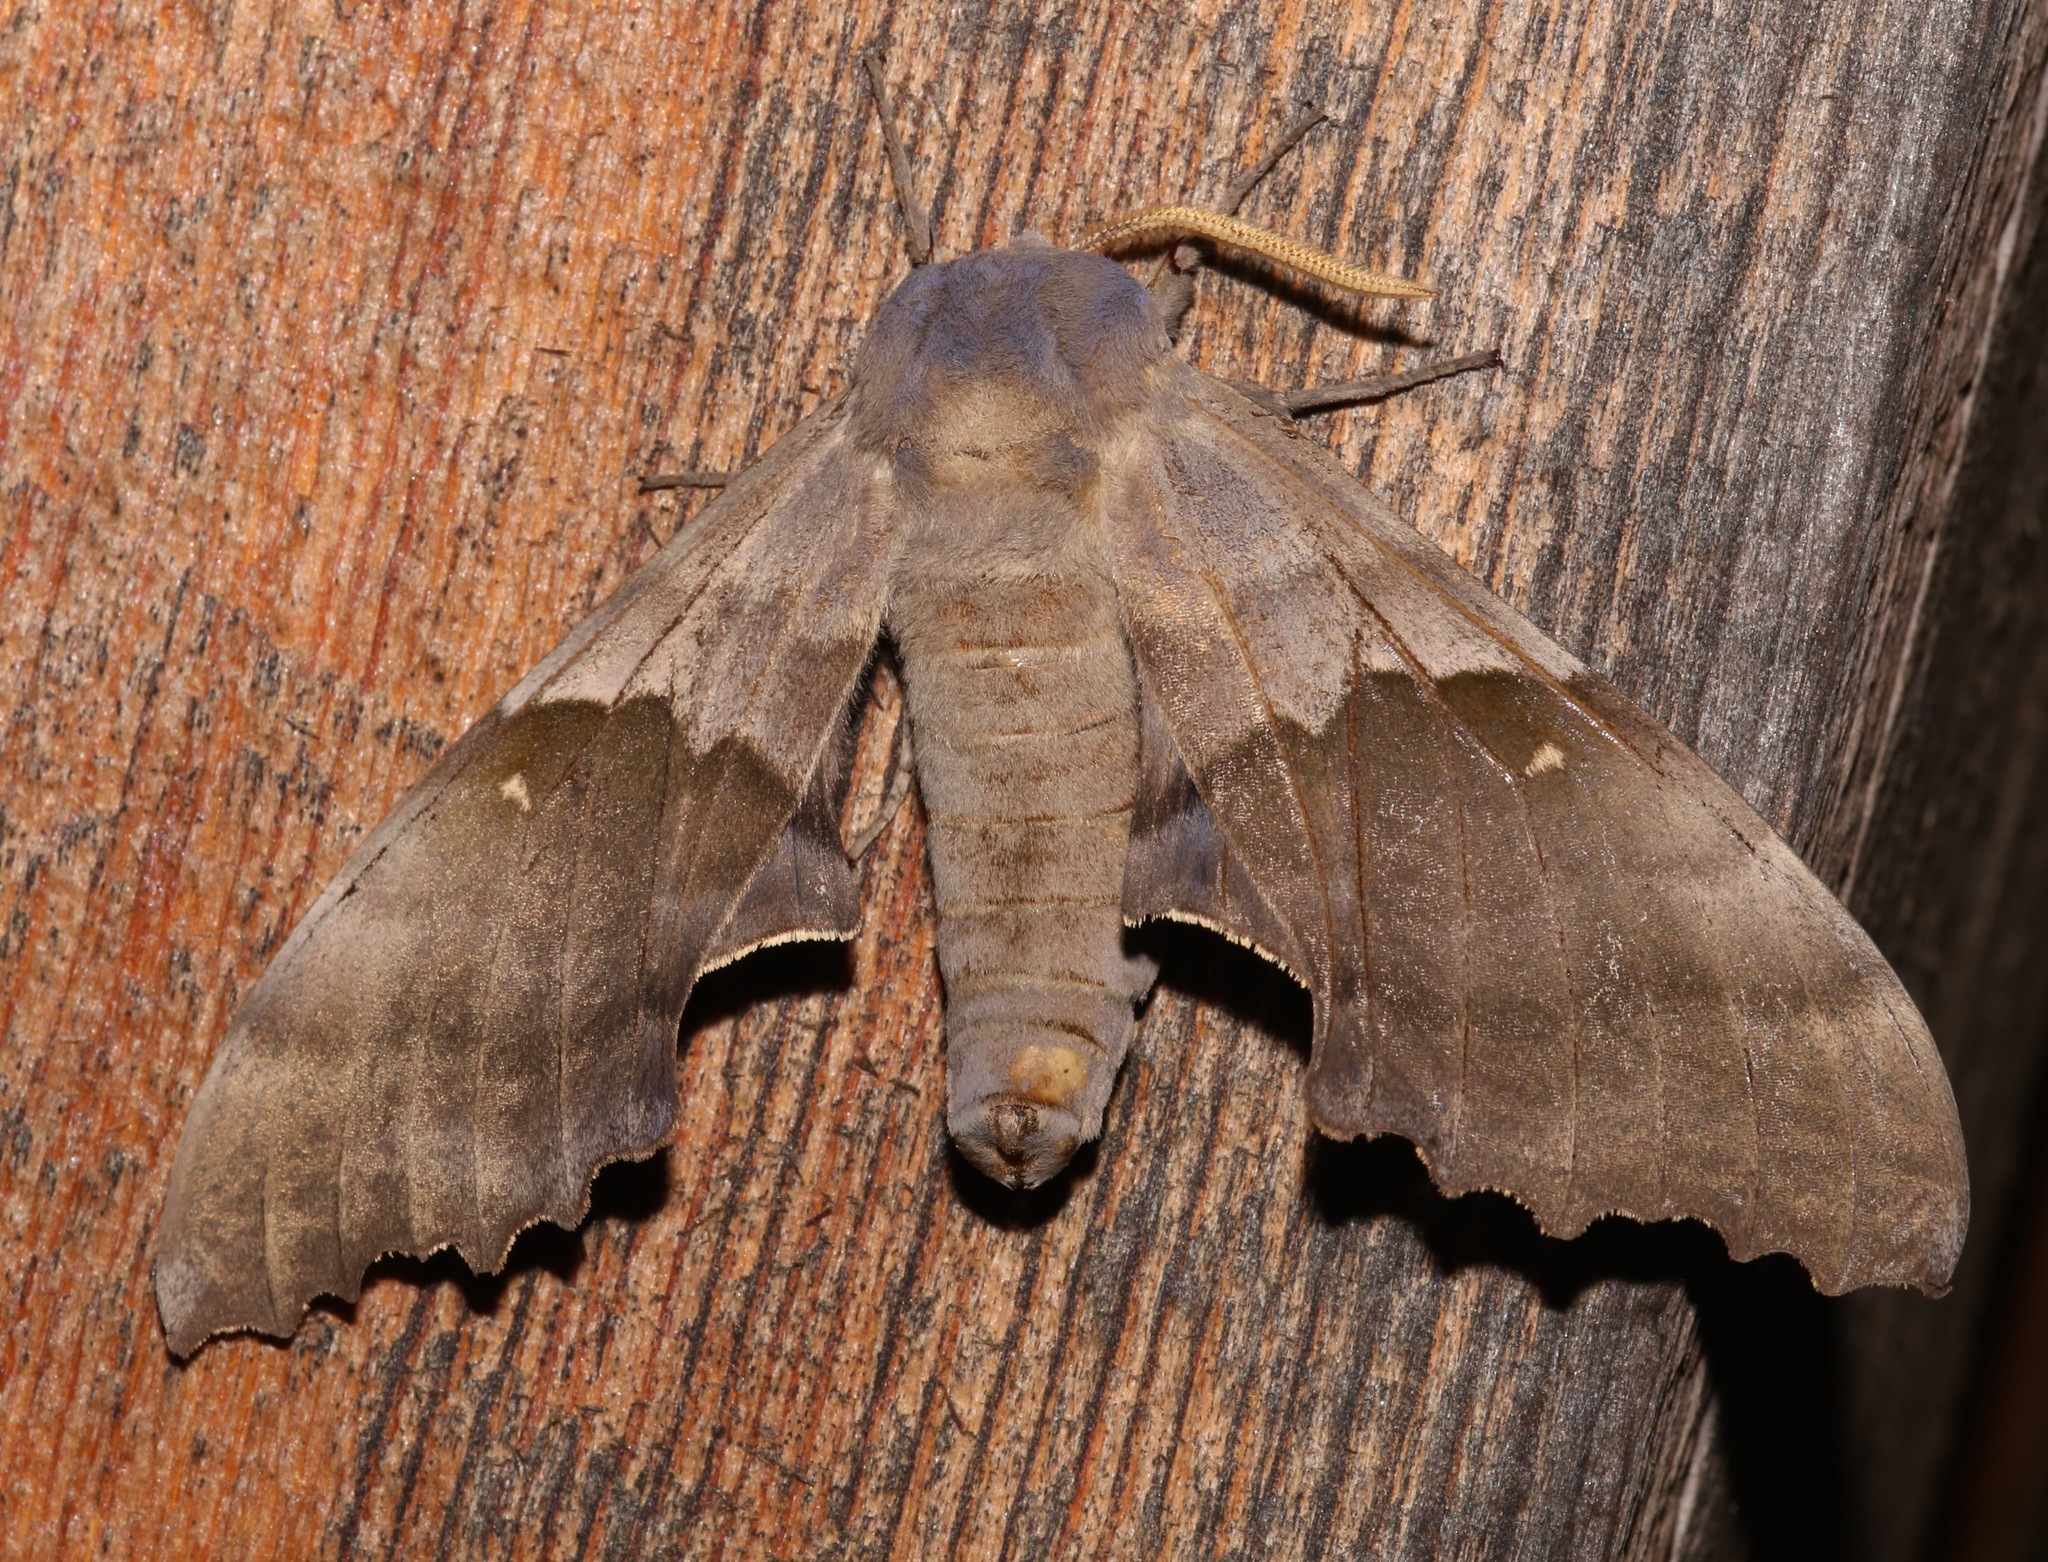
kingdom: Animalia
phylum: Arthropoda
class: Insecta
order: Lepidoptera
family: Sphingidae
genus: Pachysphinx
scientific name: Pachysphinx modesta
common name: Big poplar sphinx
